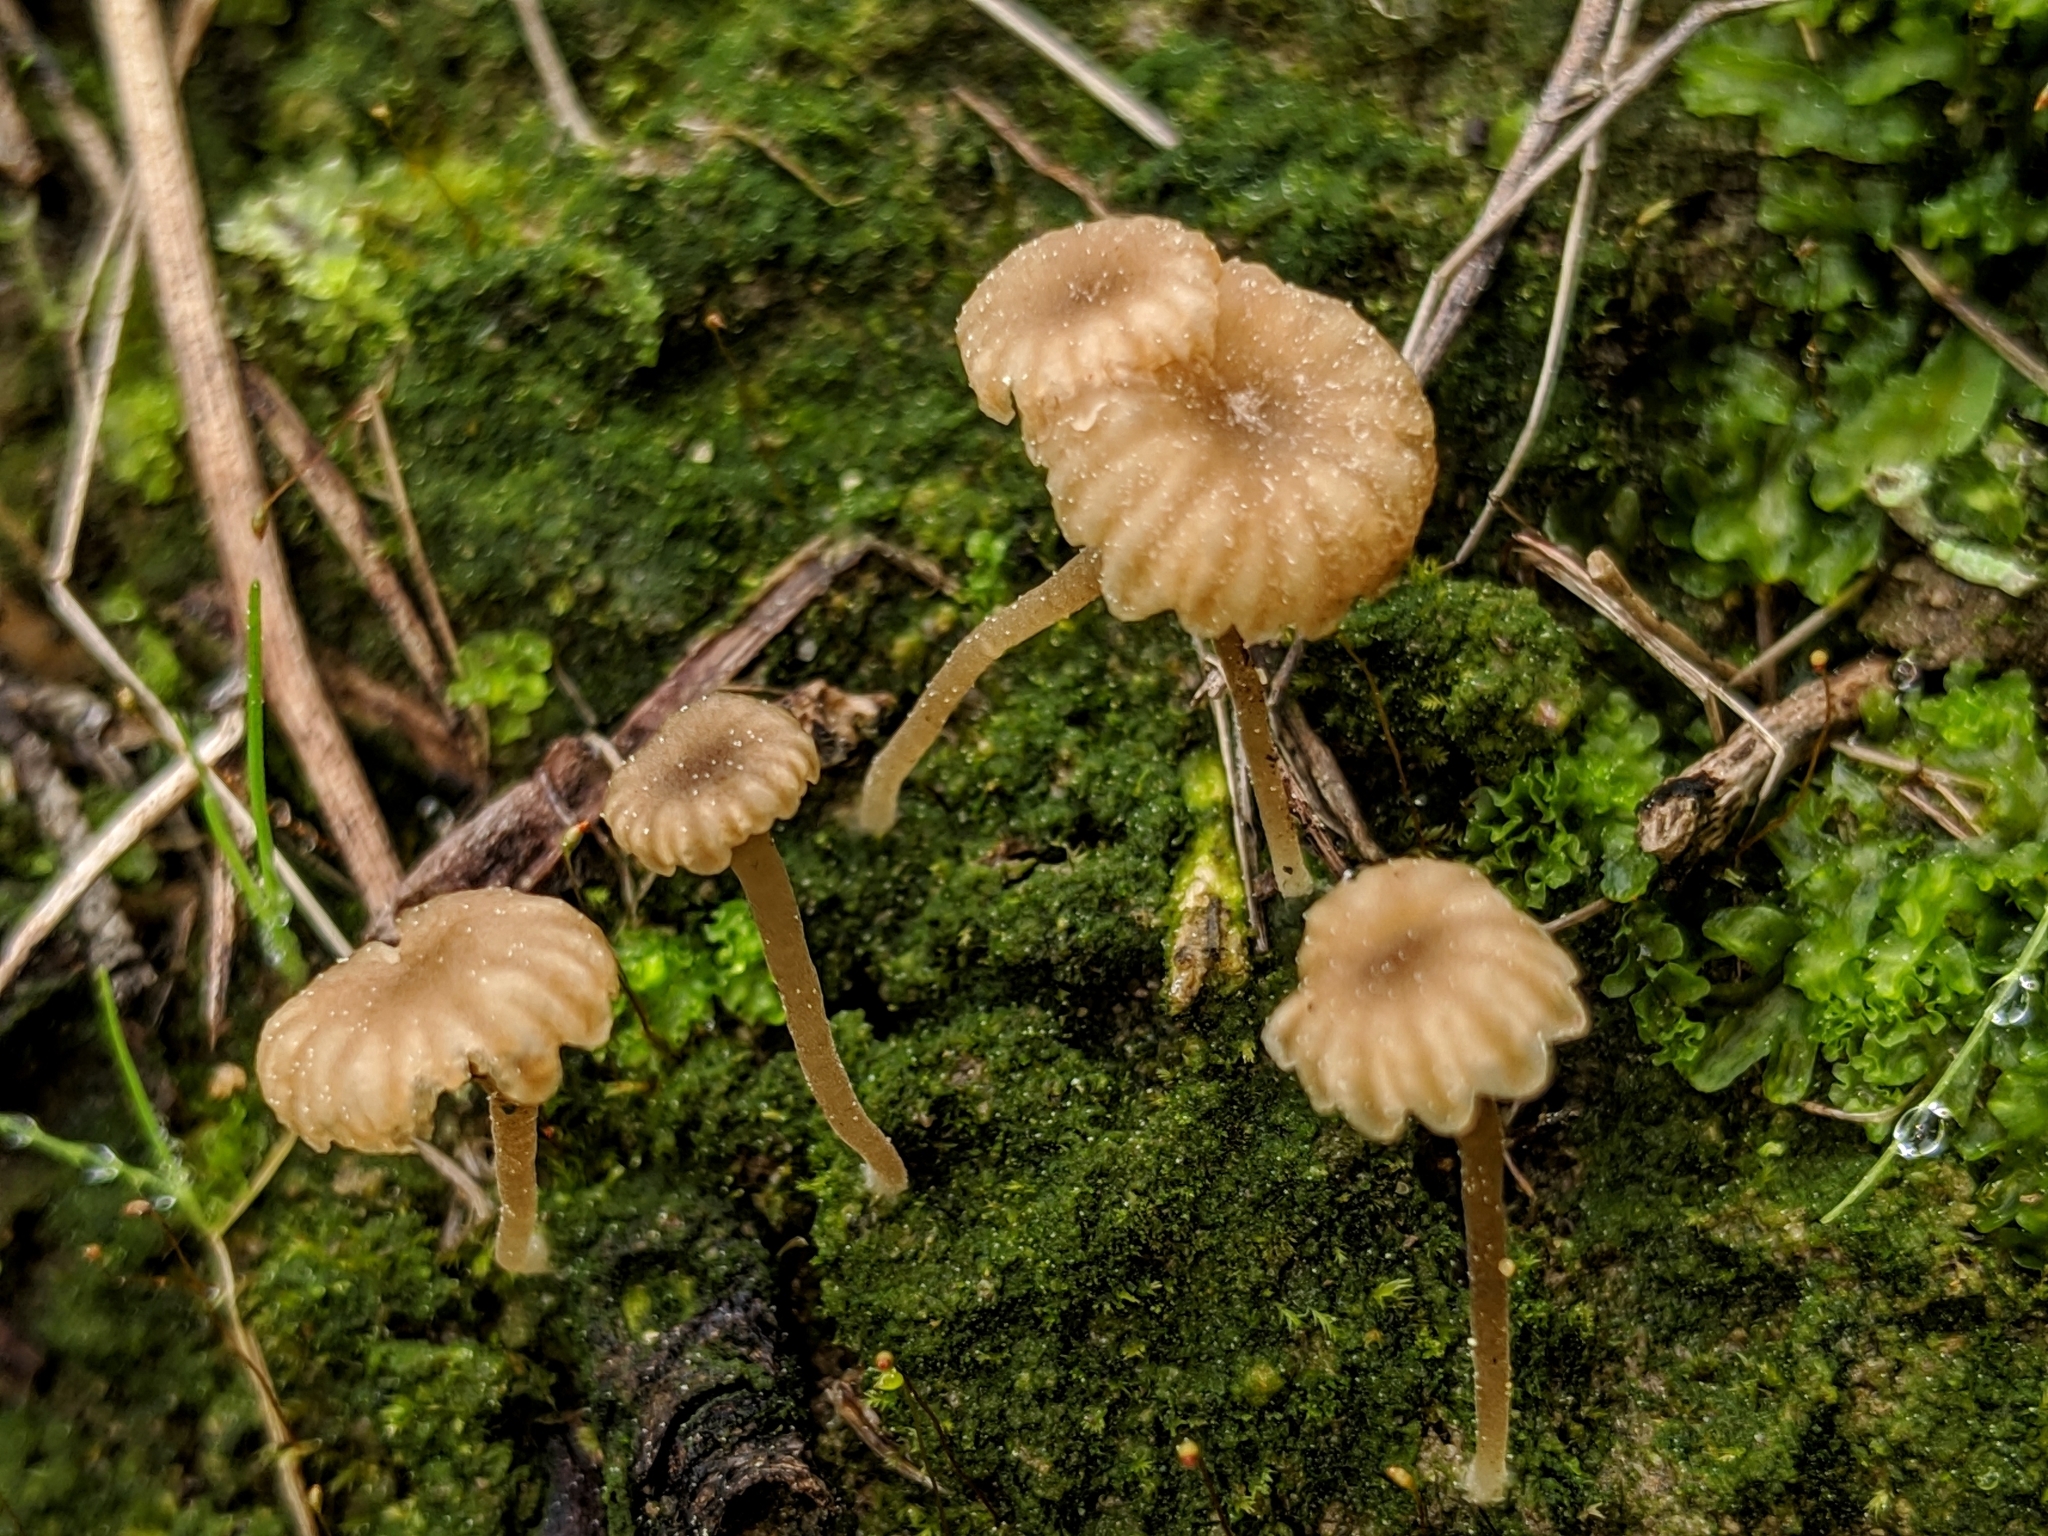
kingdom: Fungi
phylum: Basidiomycota
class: Agaricomycetes
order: Agaricales
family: Hygrophoraceae
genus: Lichenomphalia
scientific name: Lichenomphalia
